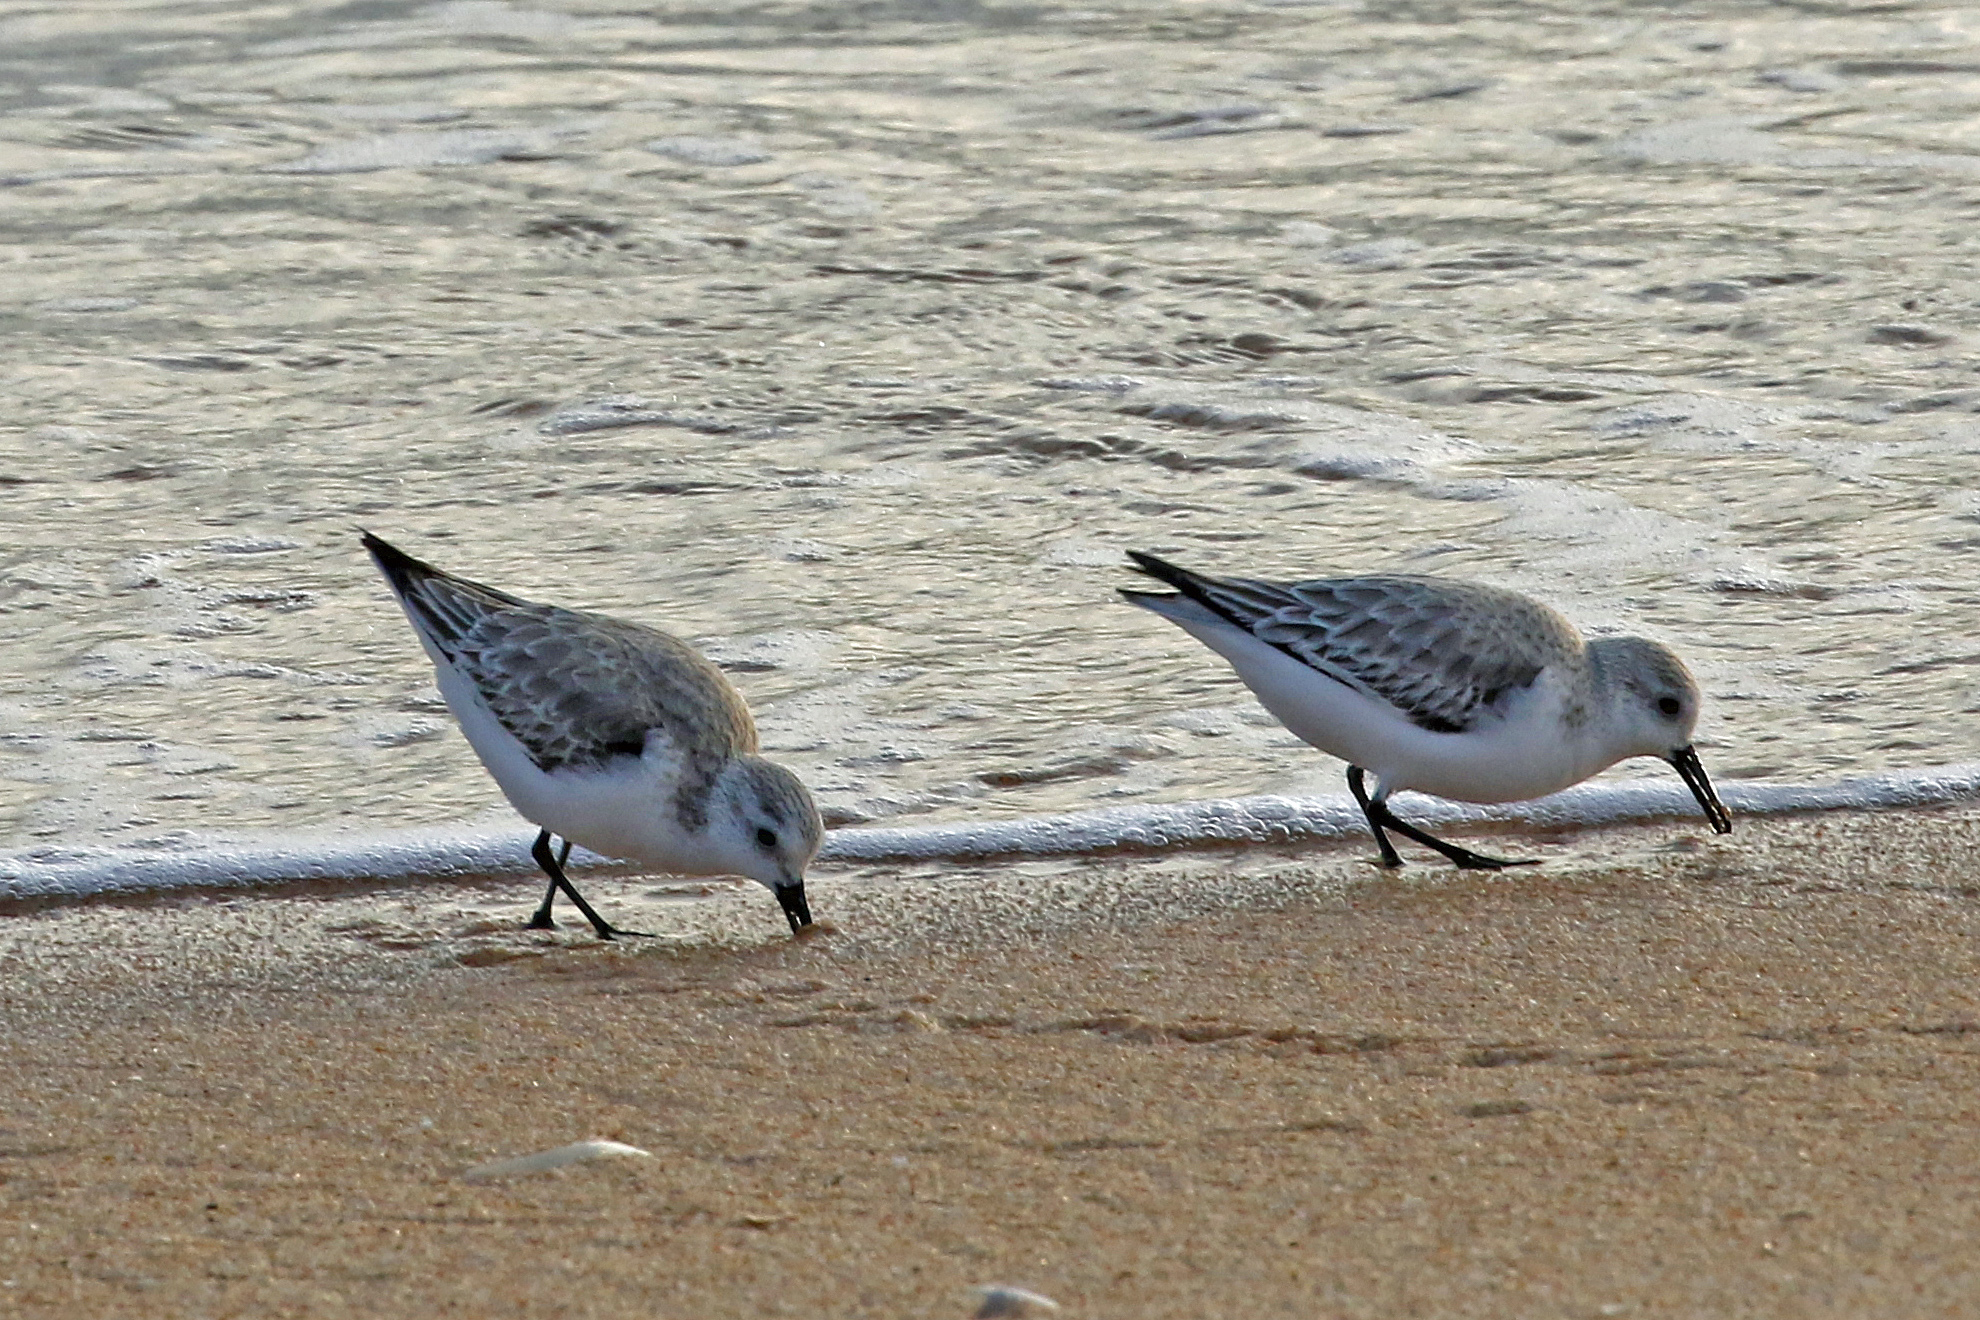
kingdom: Animalia
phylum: Chordata
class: Aves
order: Charadriiformes
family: Scolopacidae
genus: Calidris
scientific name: Calidris alba
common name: Sanderling
